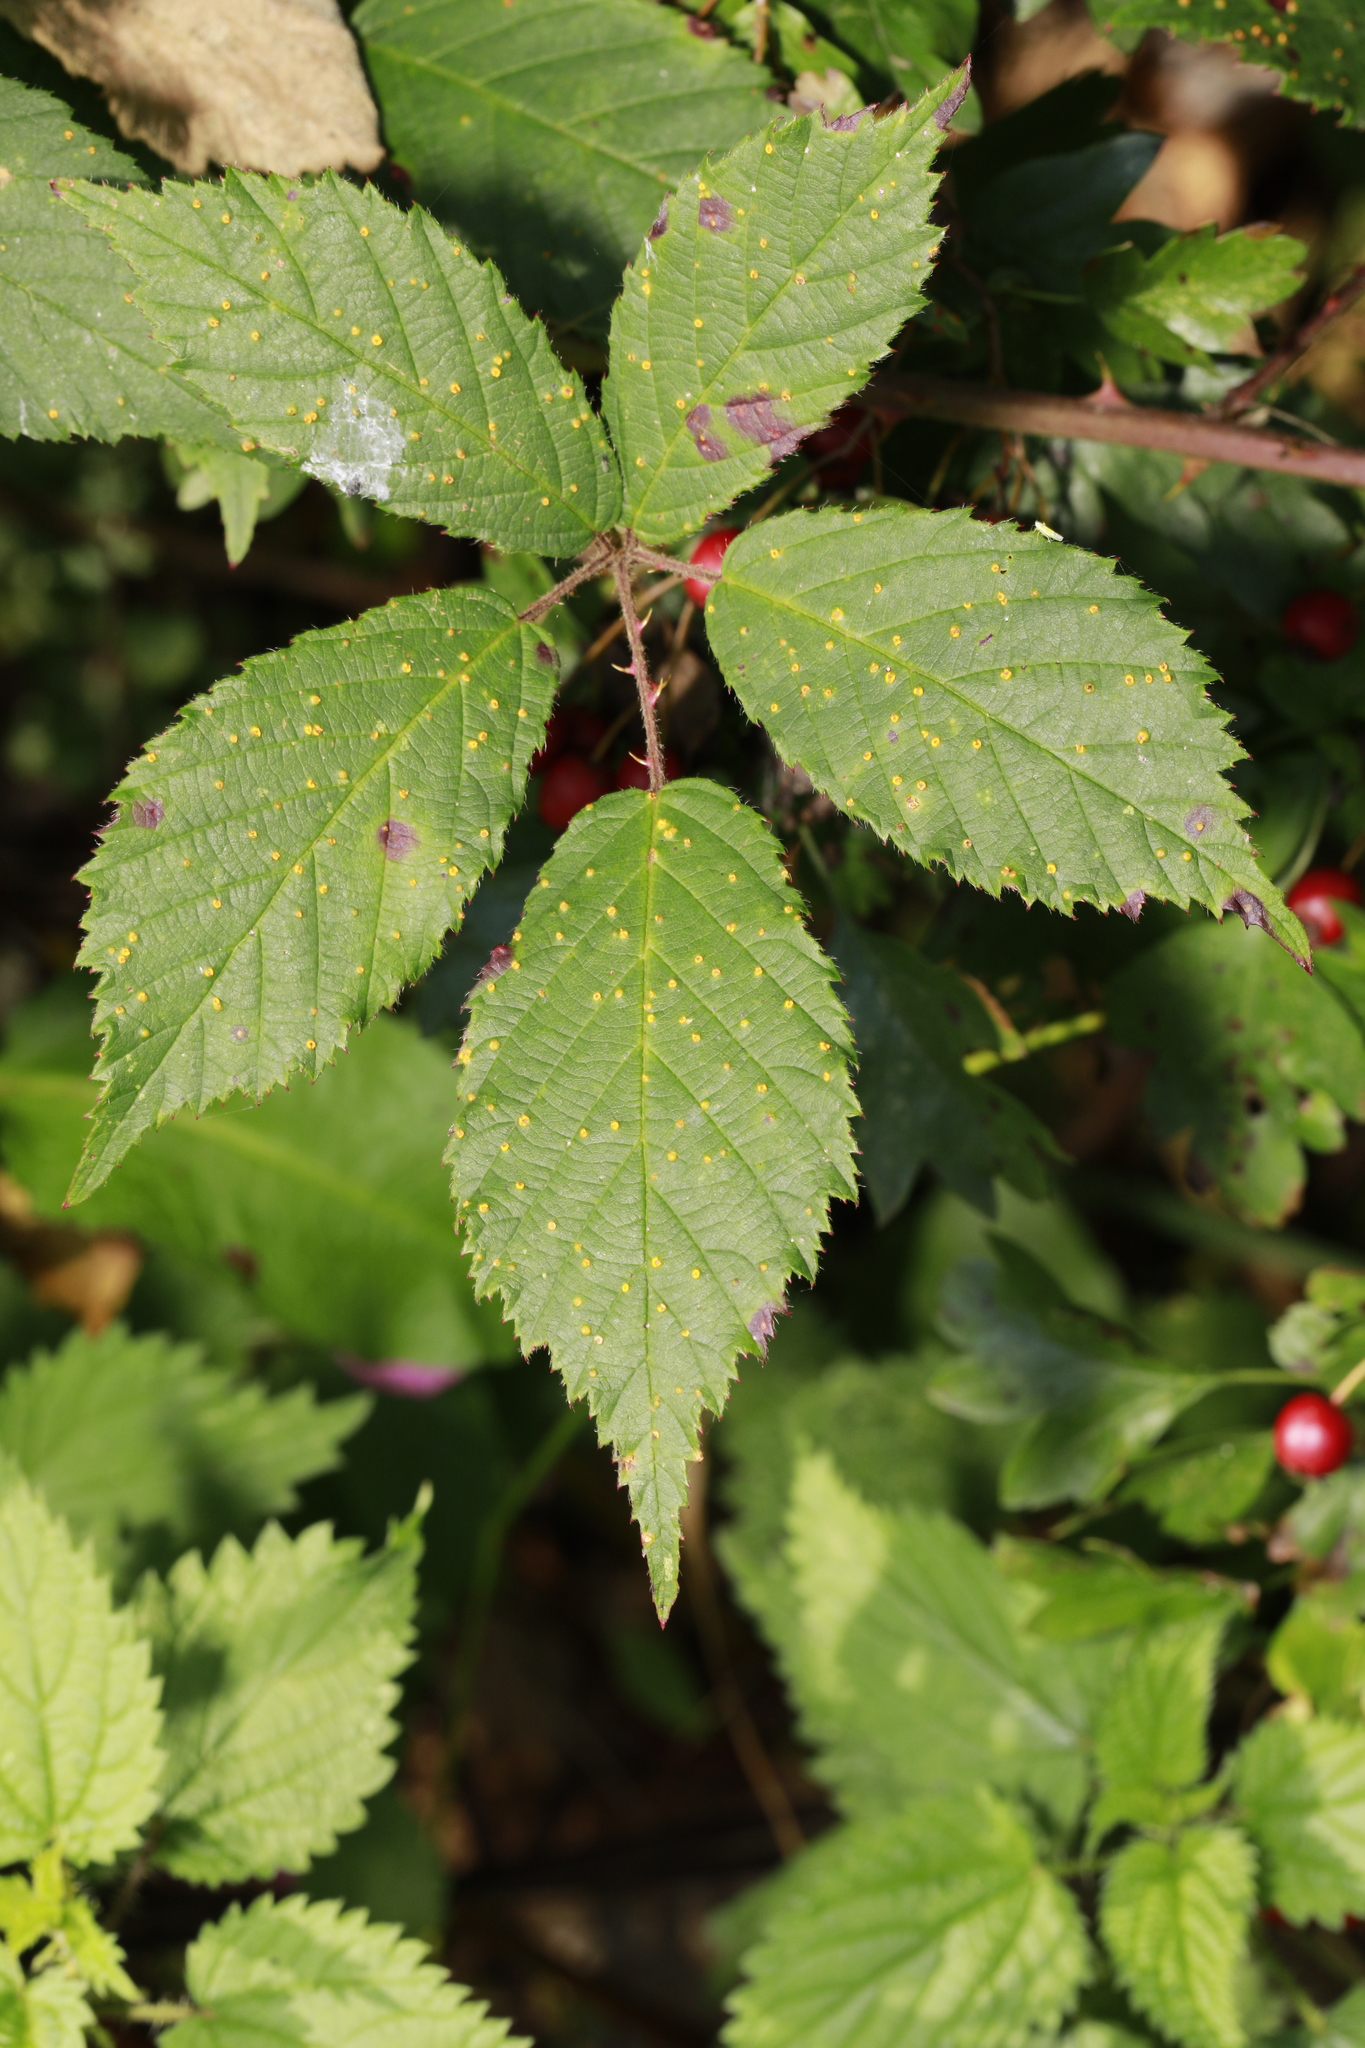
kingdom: Fungi
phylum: Basidiomycota
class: Pucciniomycetes
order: Pucciniales
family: Phragmidiaceae
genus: Phragmidium
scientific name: Phragmidium violaceum
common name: Violet bramble rust
